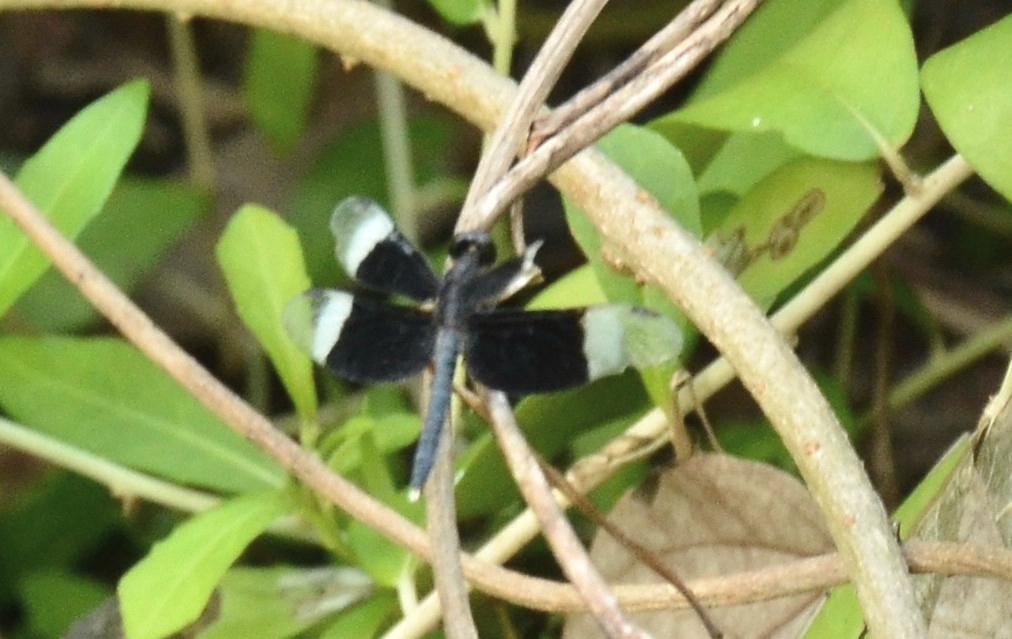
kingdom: Animalia
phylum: Arthropoda
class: Insecta
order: Odonata
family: Libellulidae
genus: Neurothemis
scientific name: Neurothemis tullia
